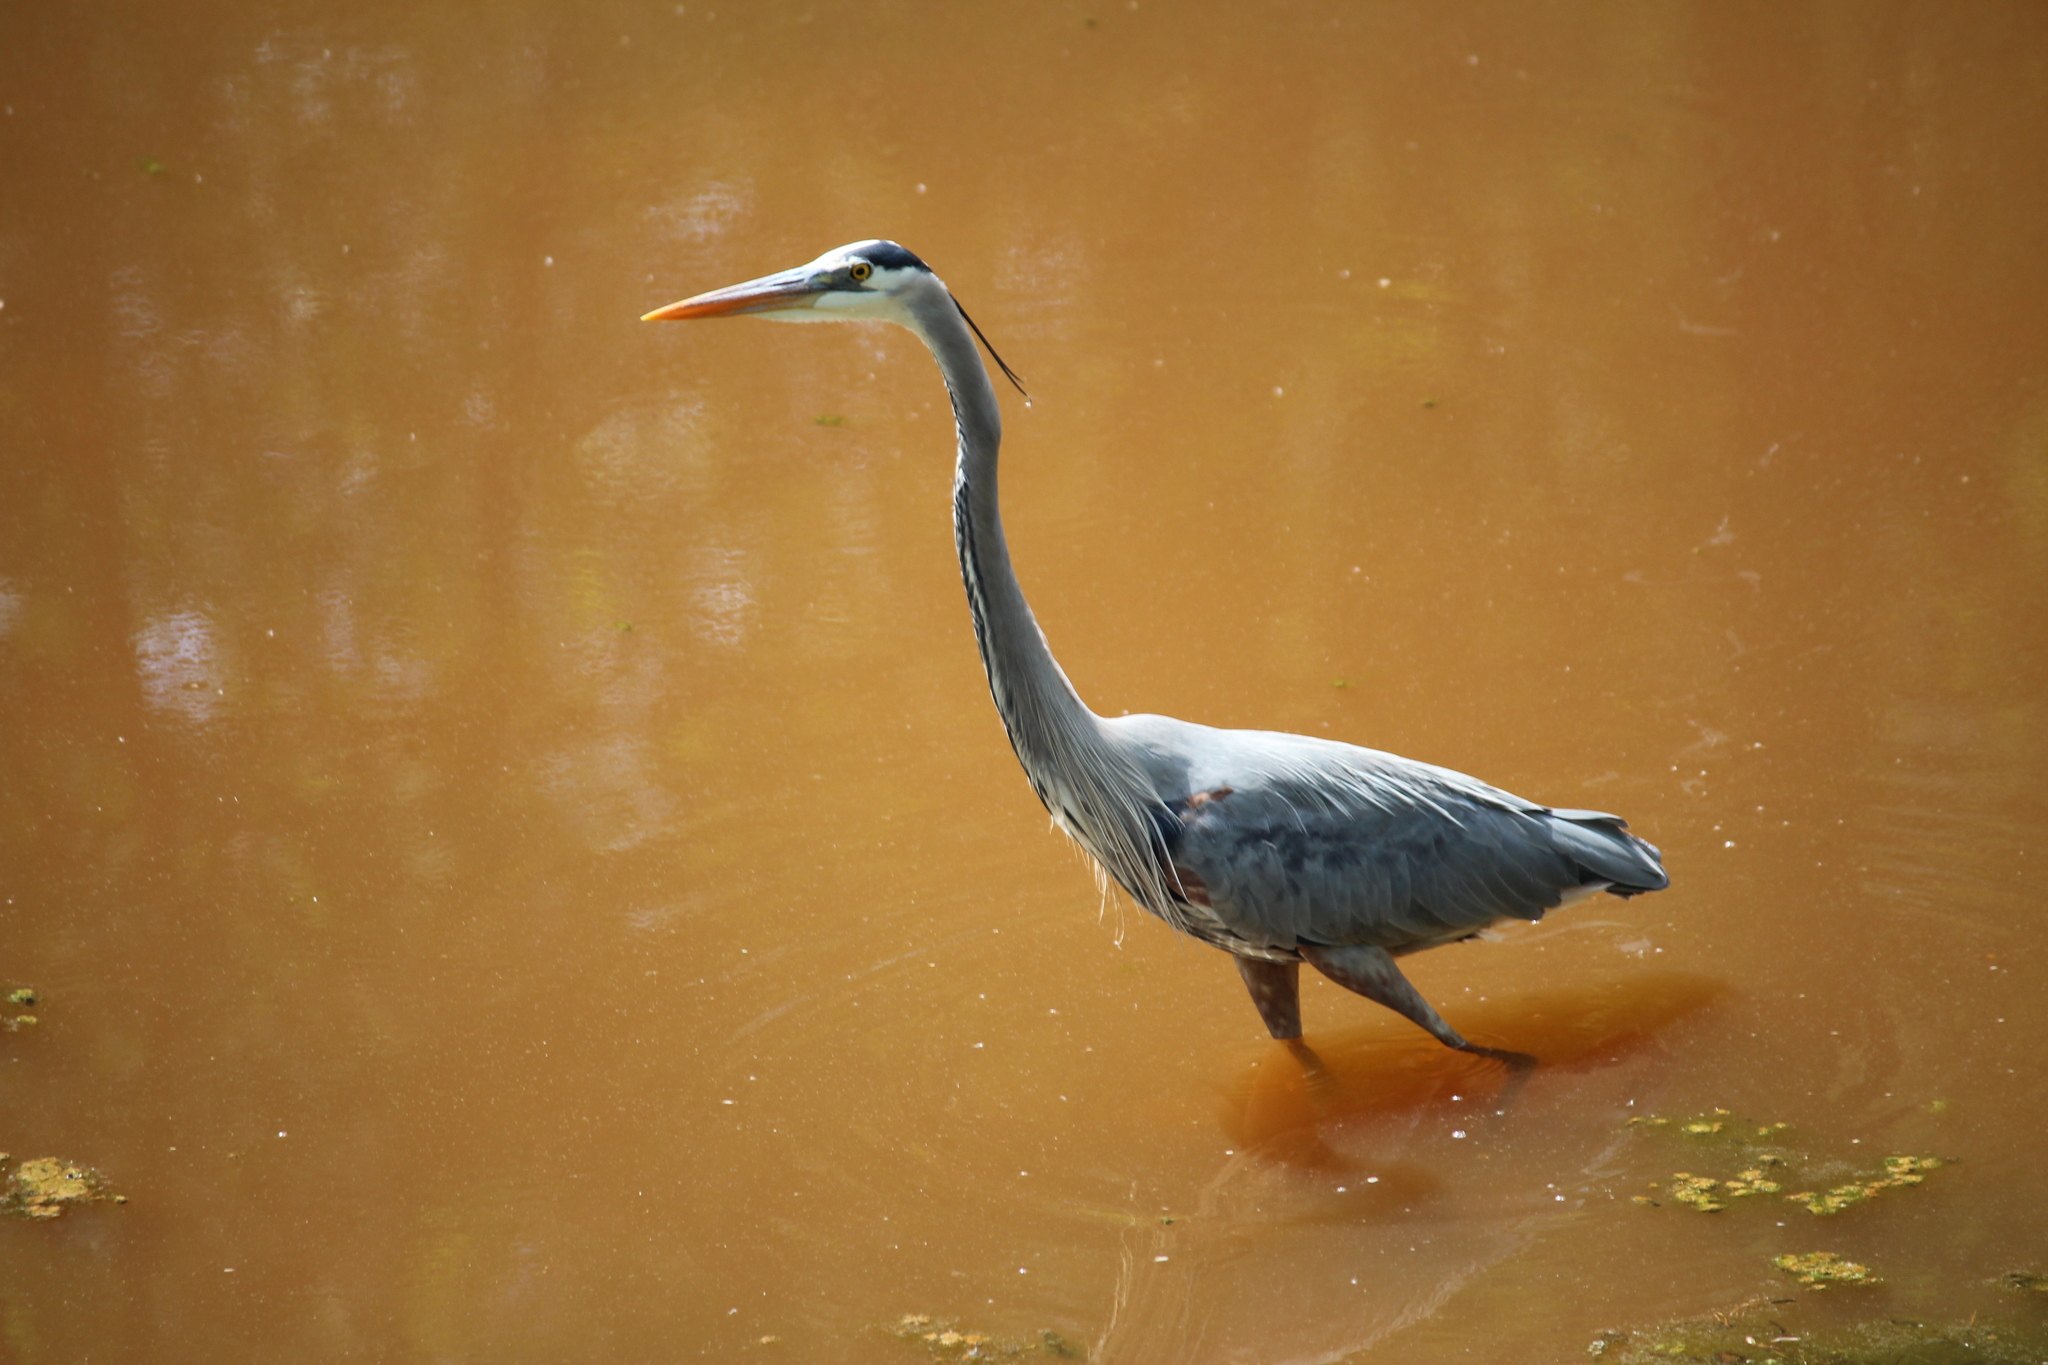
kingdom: Animalia
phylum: Chordata
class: Aves
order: Pelecaniformes
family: Ardeidae
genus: Ardea
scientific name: Ardea herodias
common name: Great blue heron
